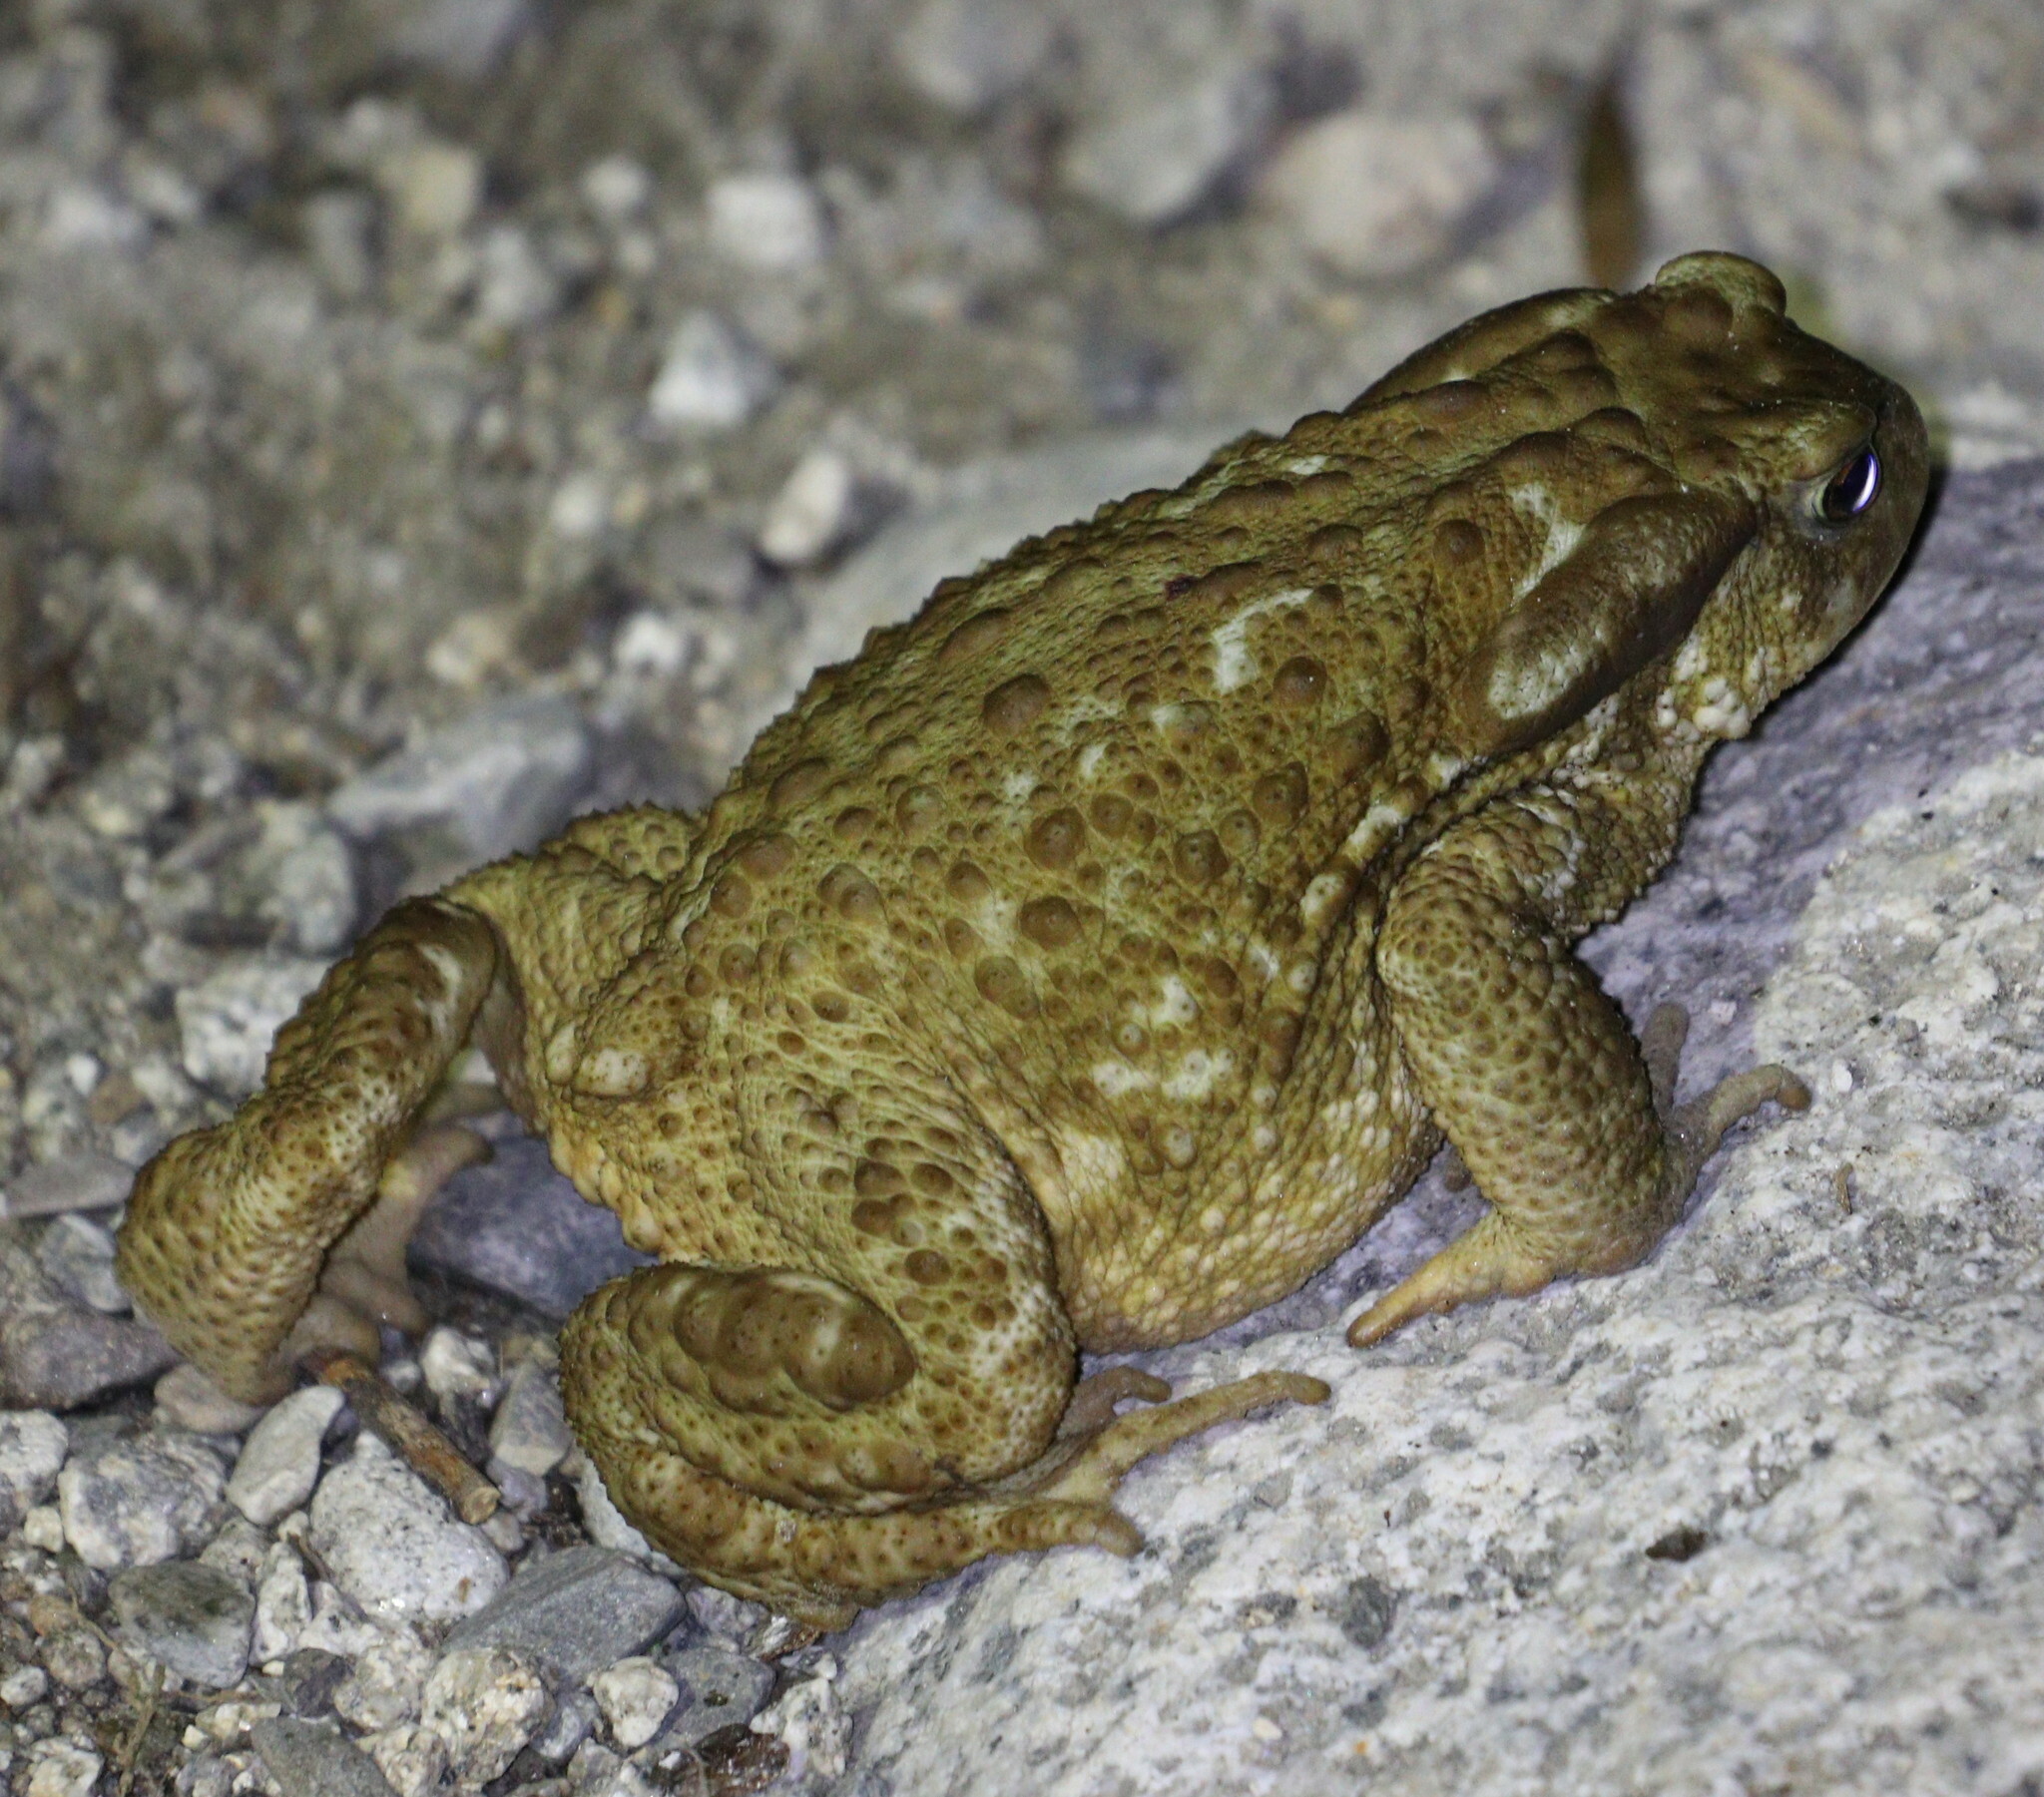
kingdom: Animalia
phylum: Chordata
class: Amphibia
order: Anura
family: Bufonidae
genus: Bufo
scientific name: Bufo spinosus
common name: Western common toad
